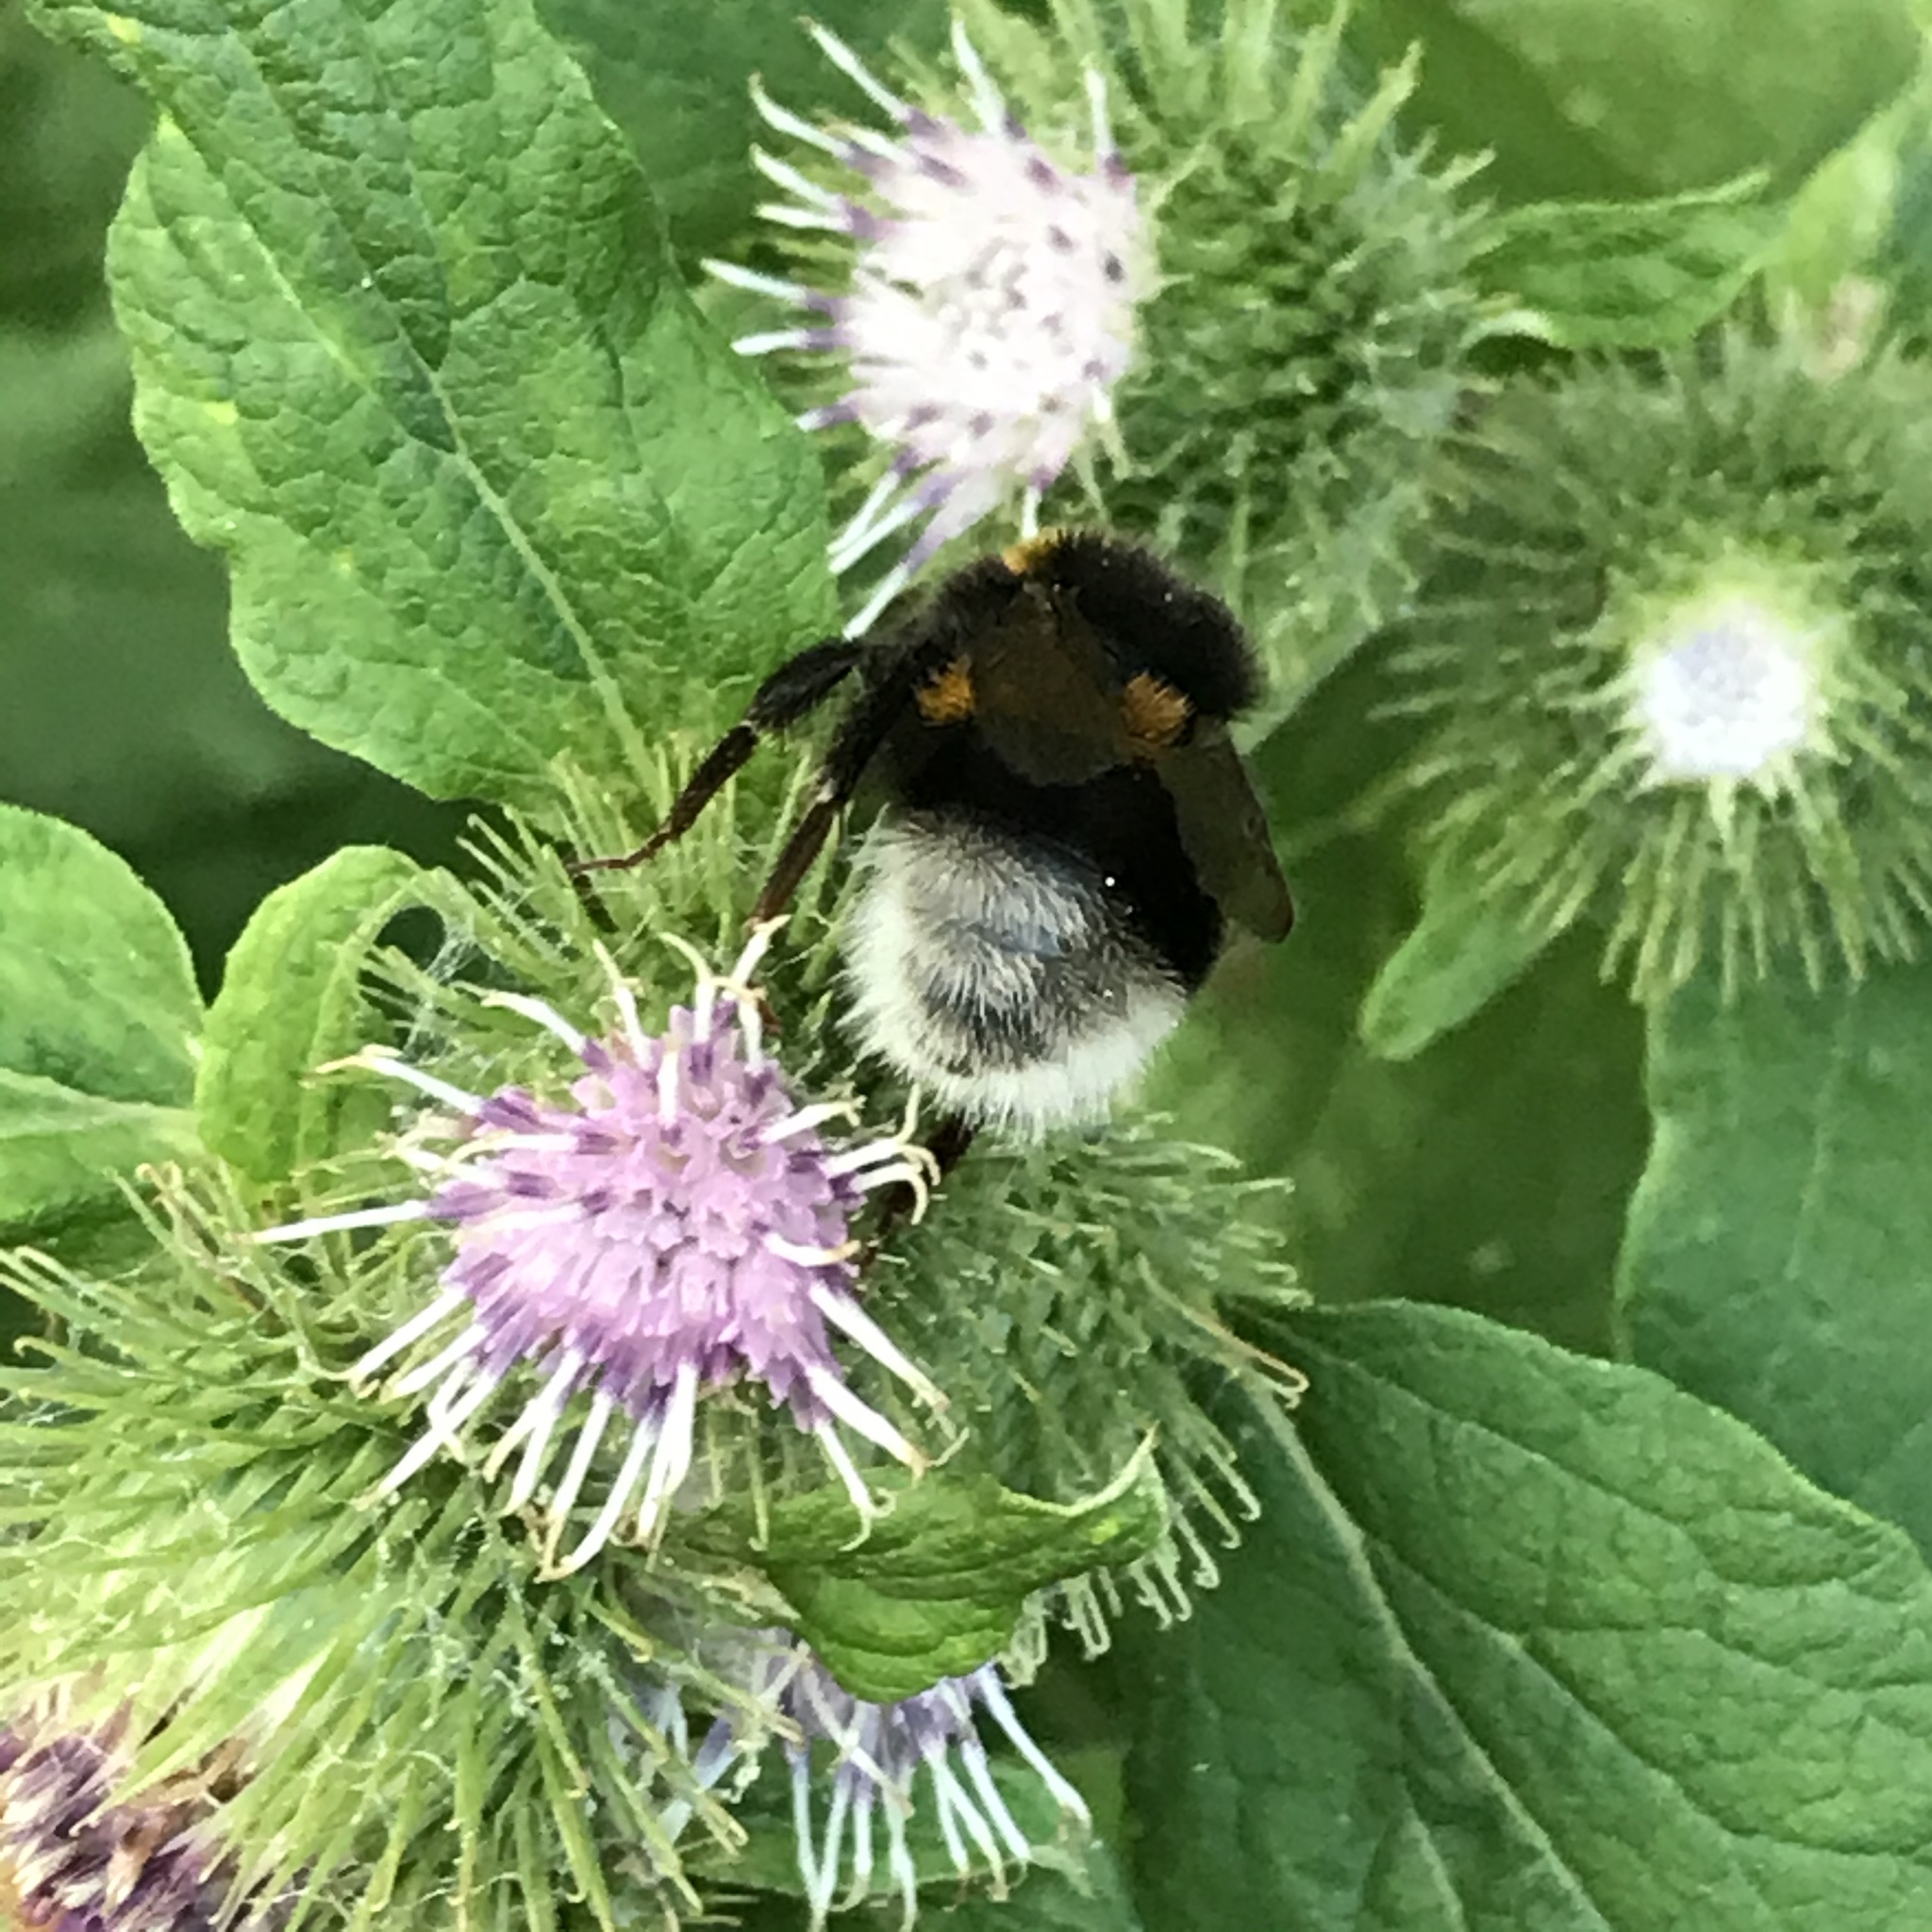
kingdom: Animalia
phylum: Arthropoda
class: Insecta
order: Hymenoptera
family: Apidae
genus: Bombus
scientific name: Bombus terrestris
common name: Buff-tailed bumblebee
